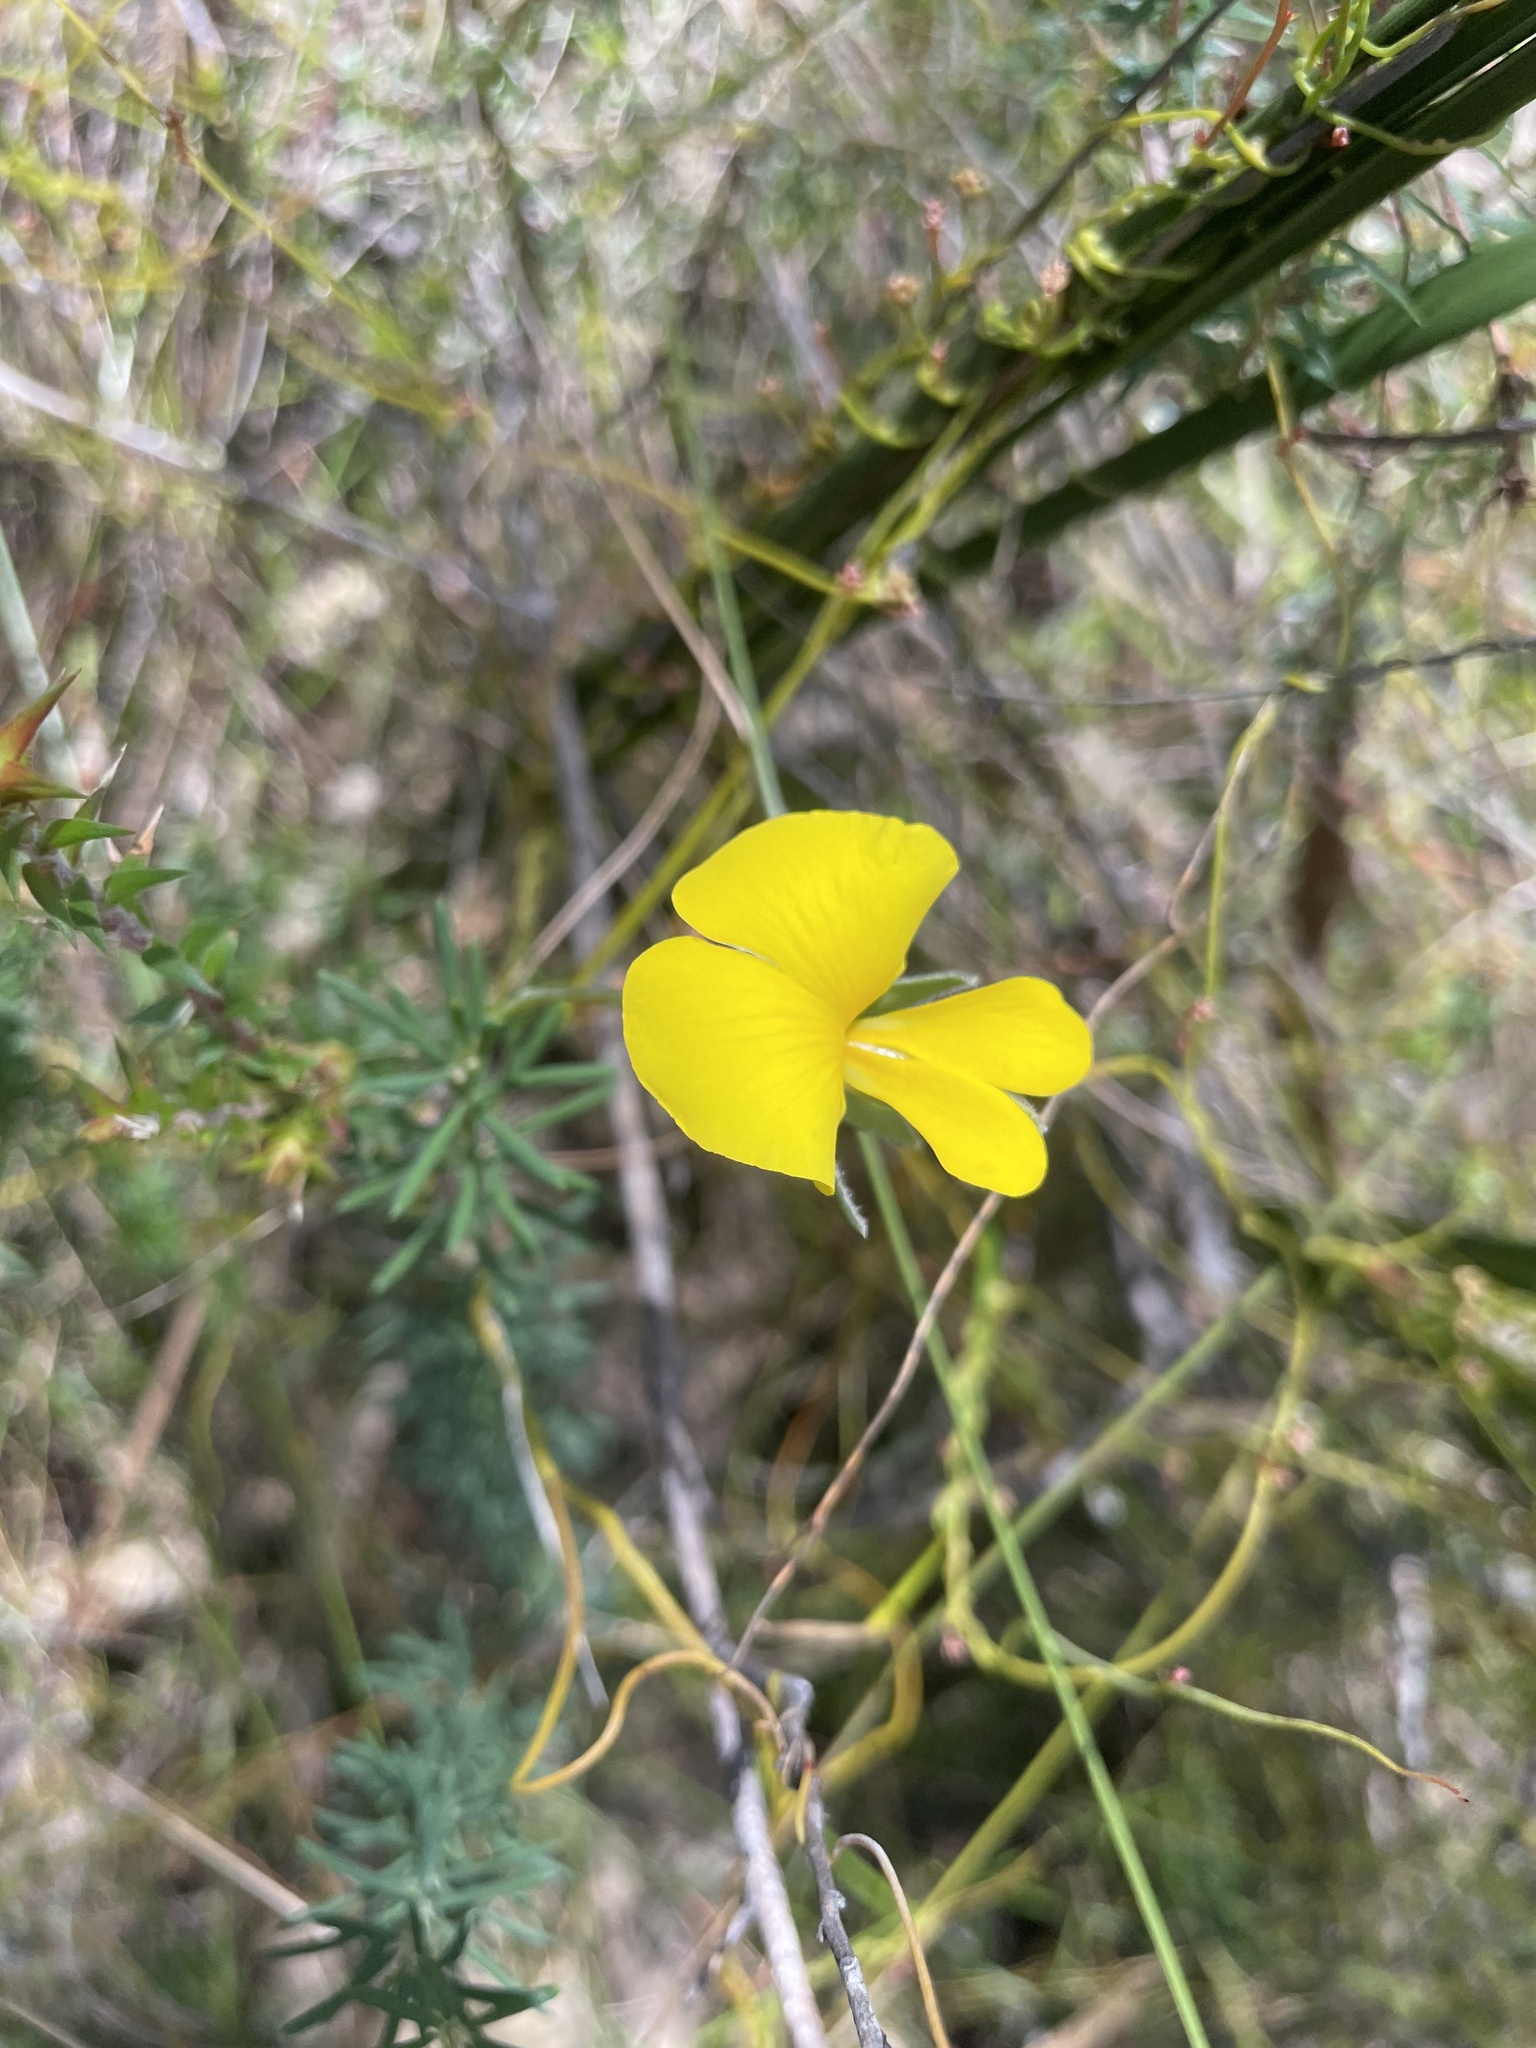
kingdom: Plantae
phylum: Tracheophyta
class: Magnoliopsida
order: Fabales
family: Fabaceae
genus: Gompholobium
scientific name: Gompholobium huegelii
